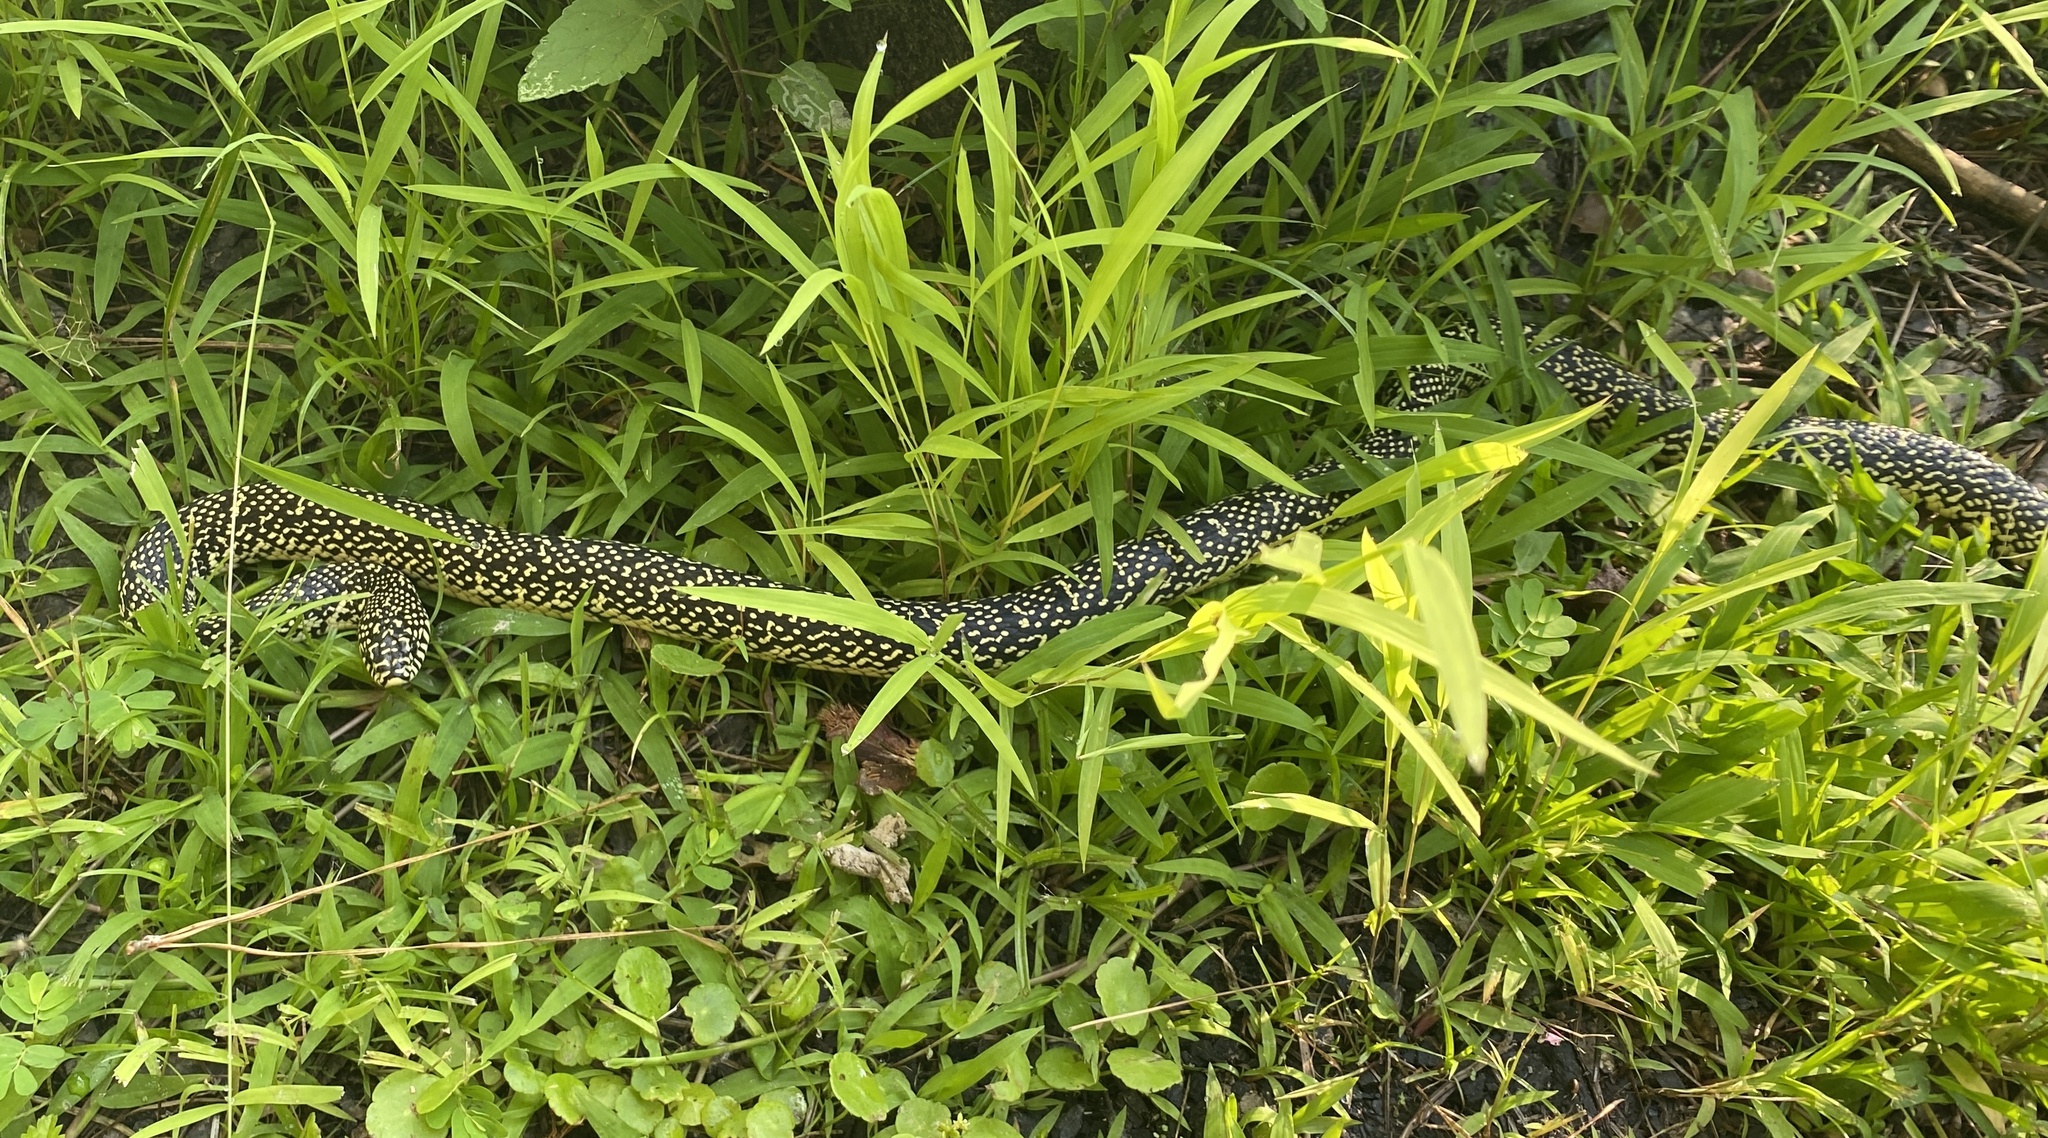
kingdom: Animalia
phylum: Chordata
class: Squamata
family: Colubridae
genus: Lampropeltis
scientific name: Lampropeltis holbrooki
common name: Speckled kingsnake
